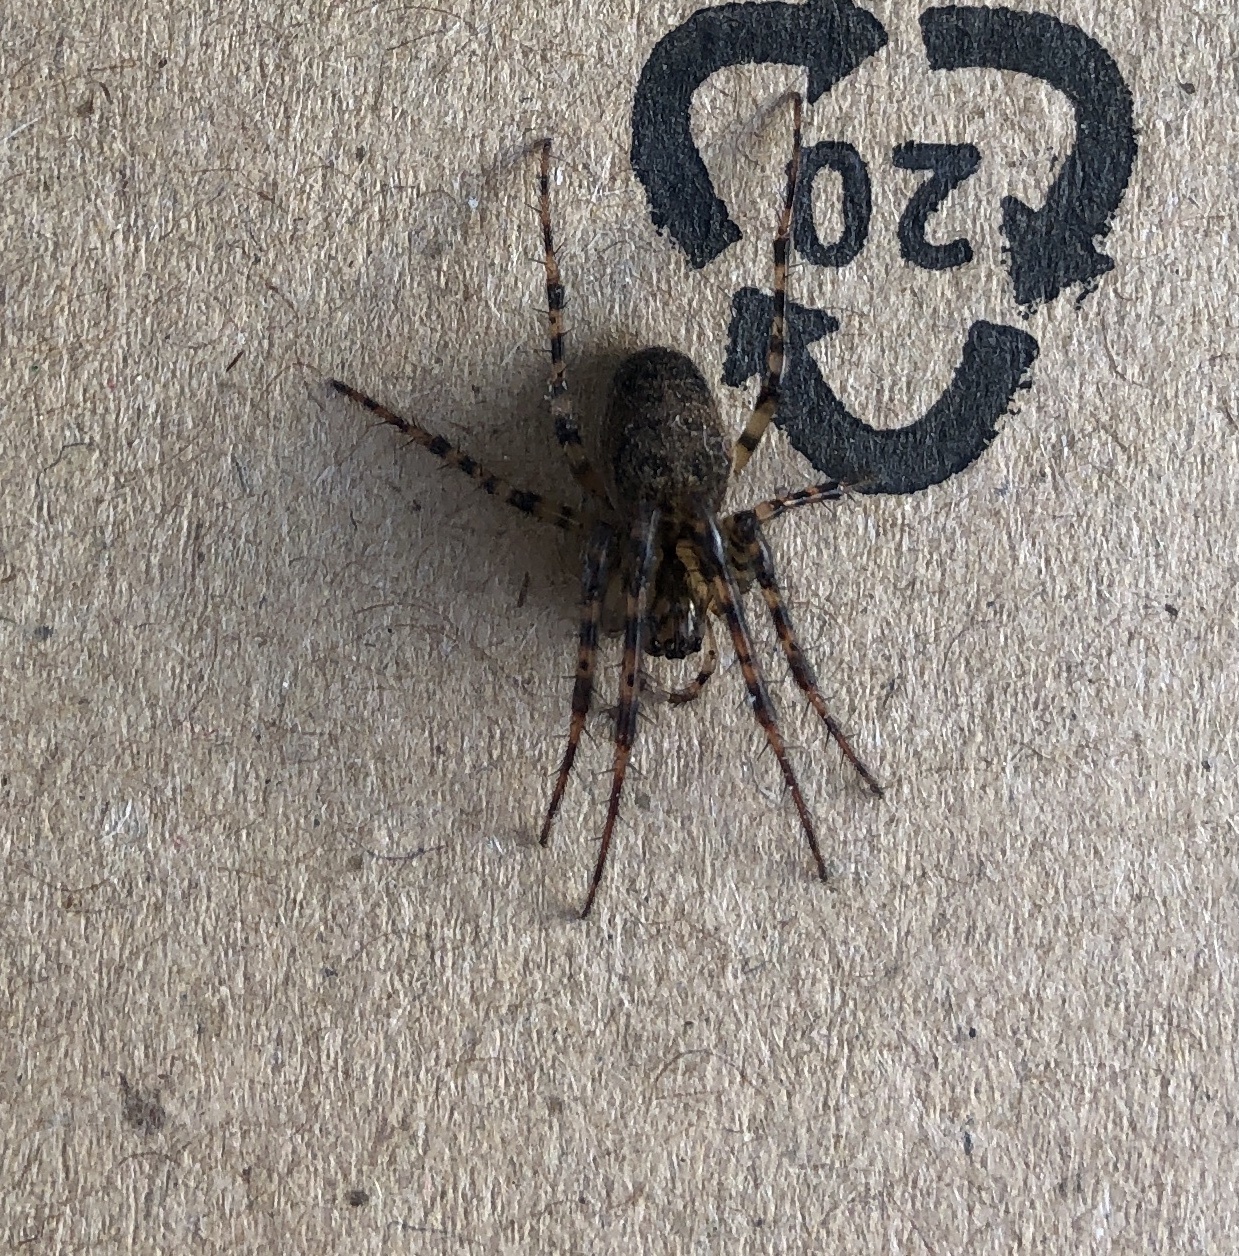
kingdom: Animalia
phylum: Arthropoda
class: Arachnida
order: Araneae
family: Tetragnathidae
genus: Metellina
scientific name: Metellina merianae
